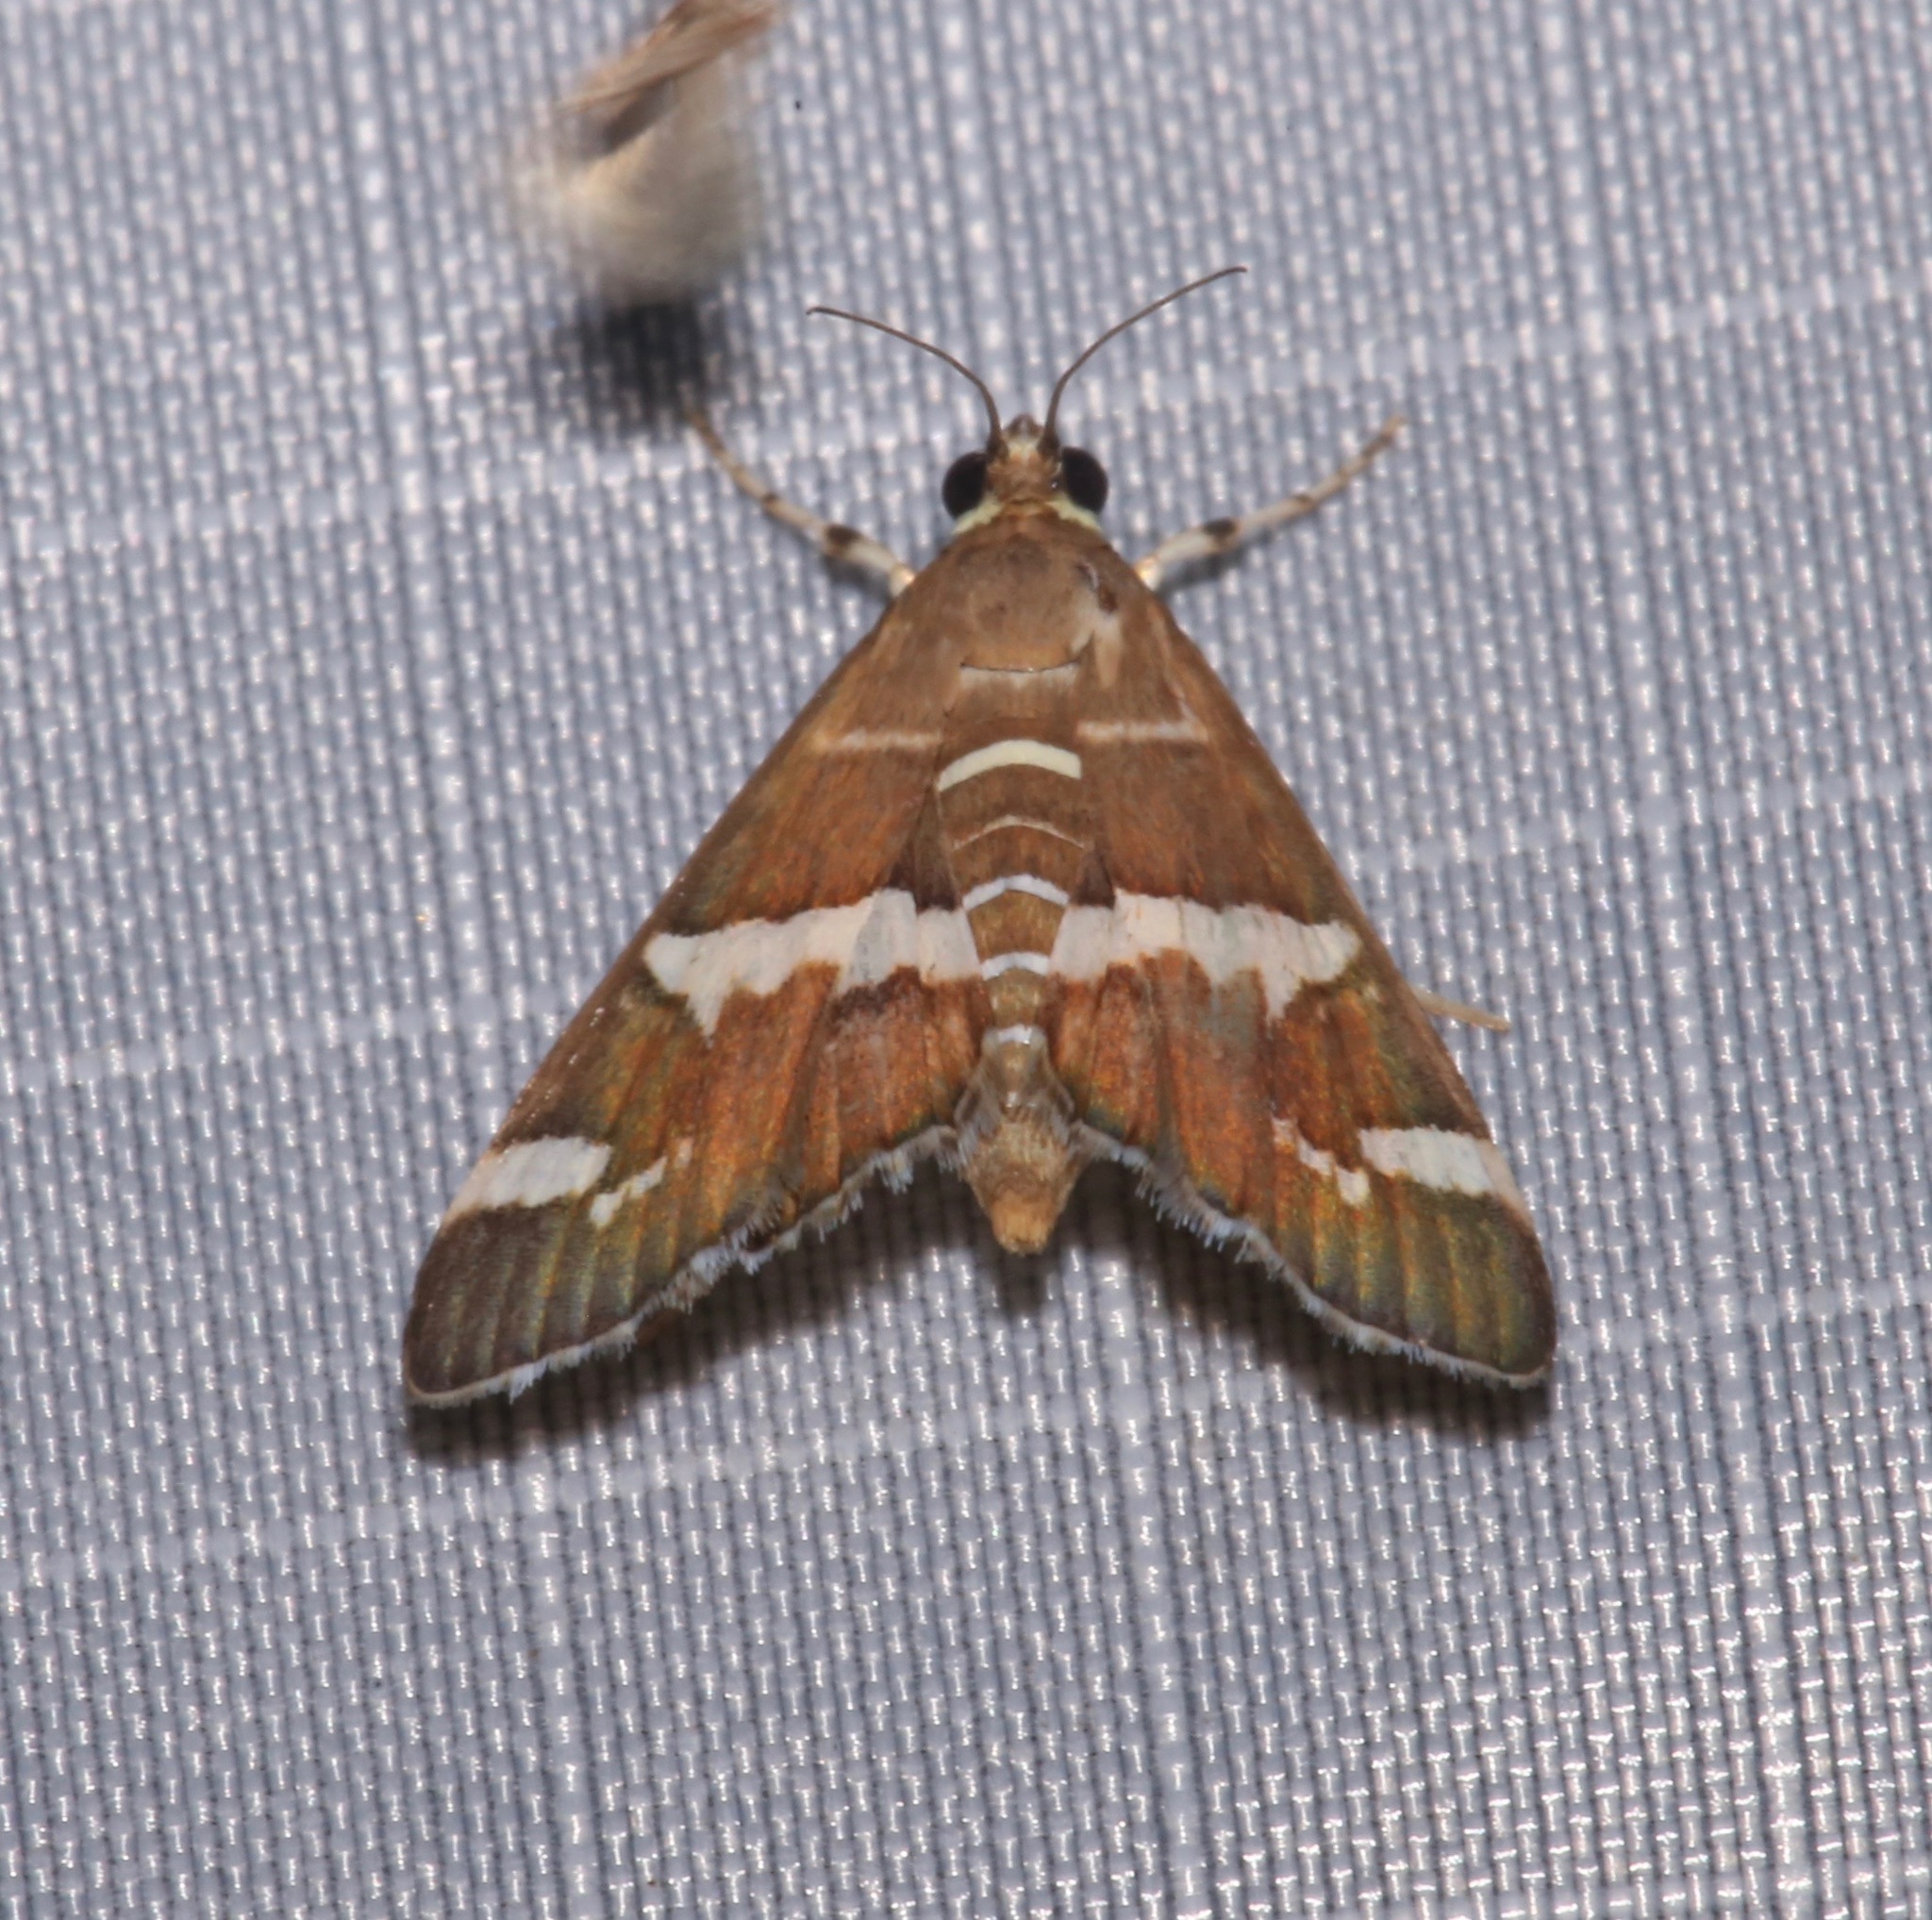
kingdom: Animalia
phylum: Arthropoda
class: Insecta
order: Lepidoptera
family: Crambidae
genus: Spoladea
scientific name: Spoladea recurvalis
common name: Beet webworm moth
